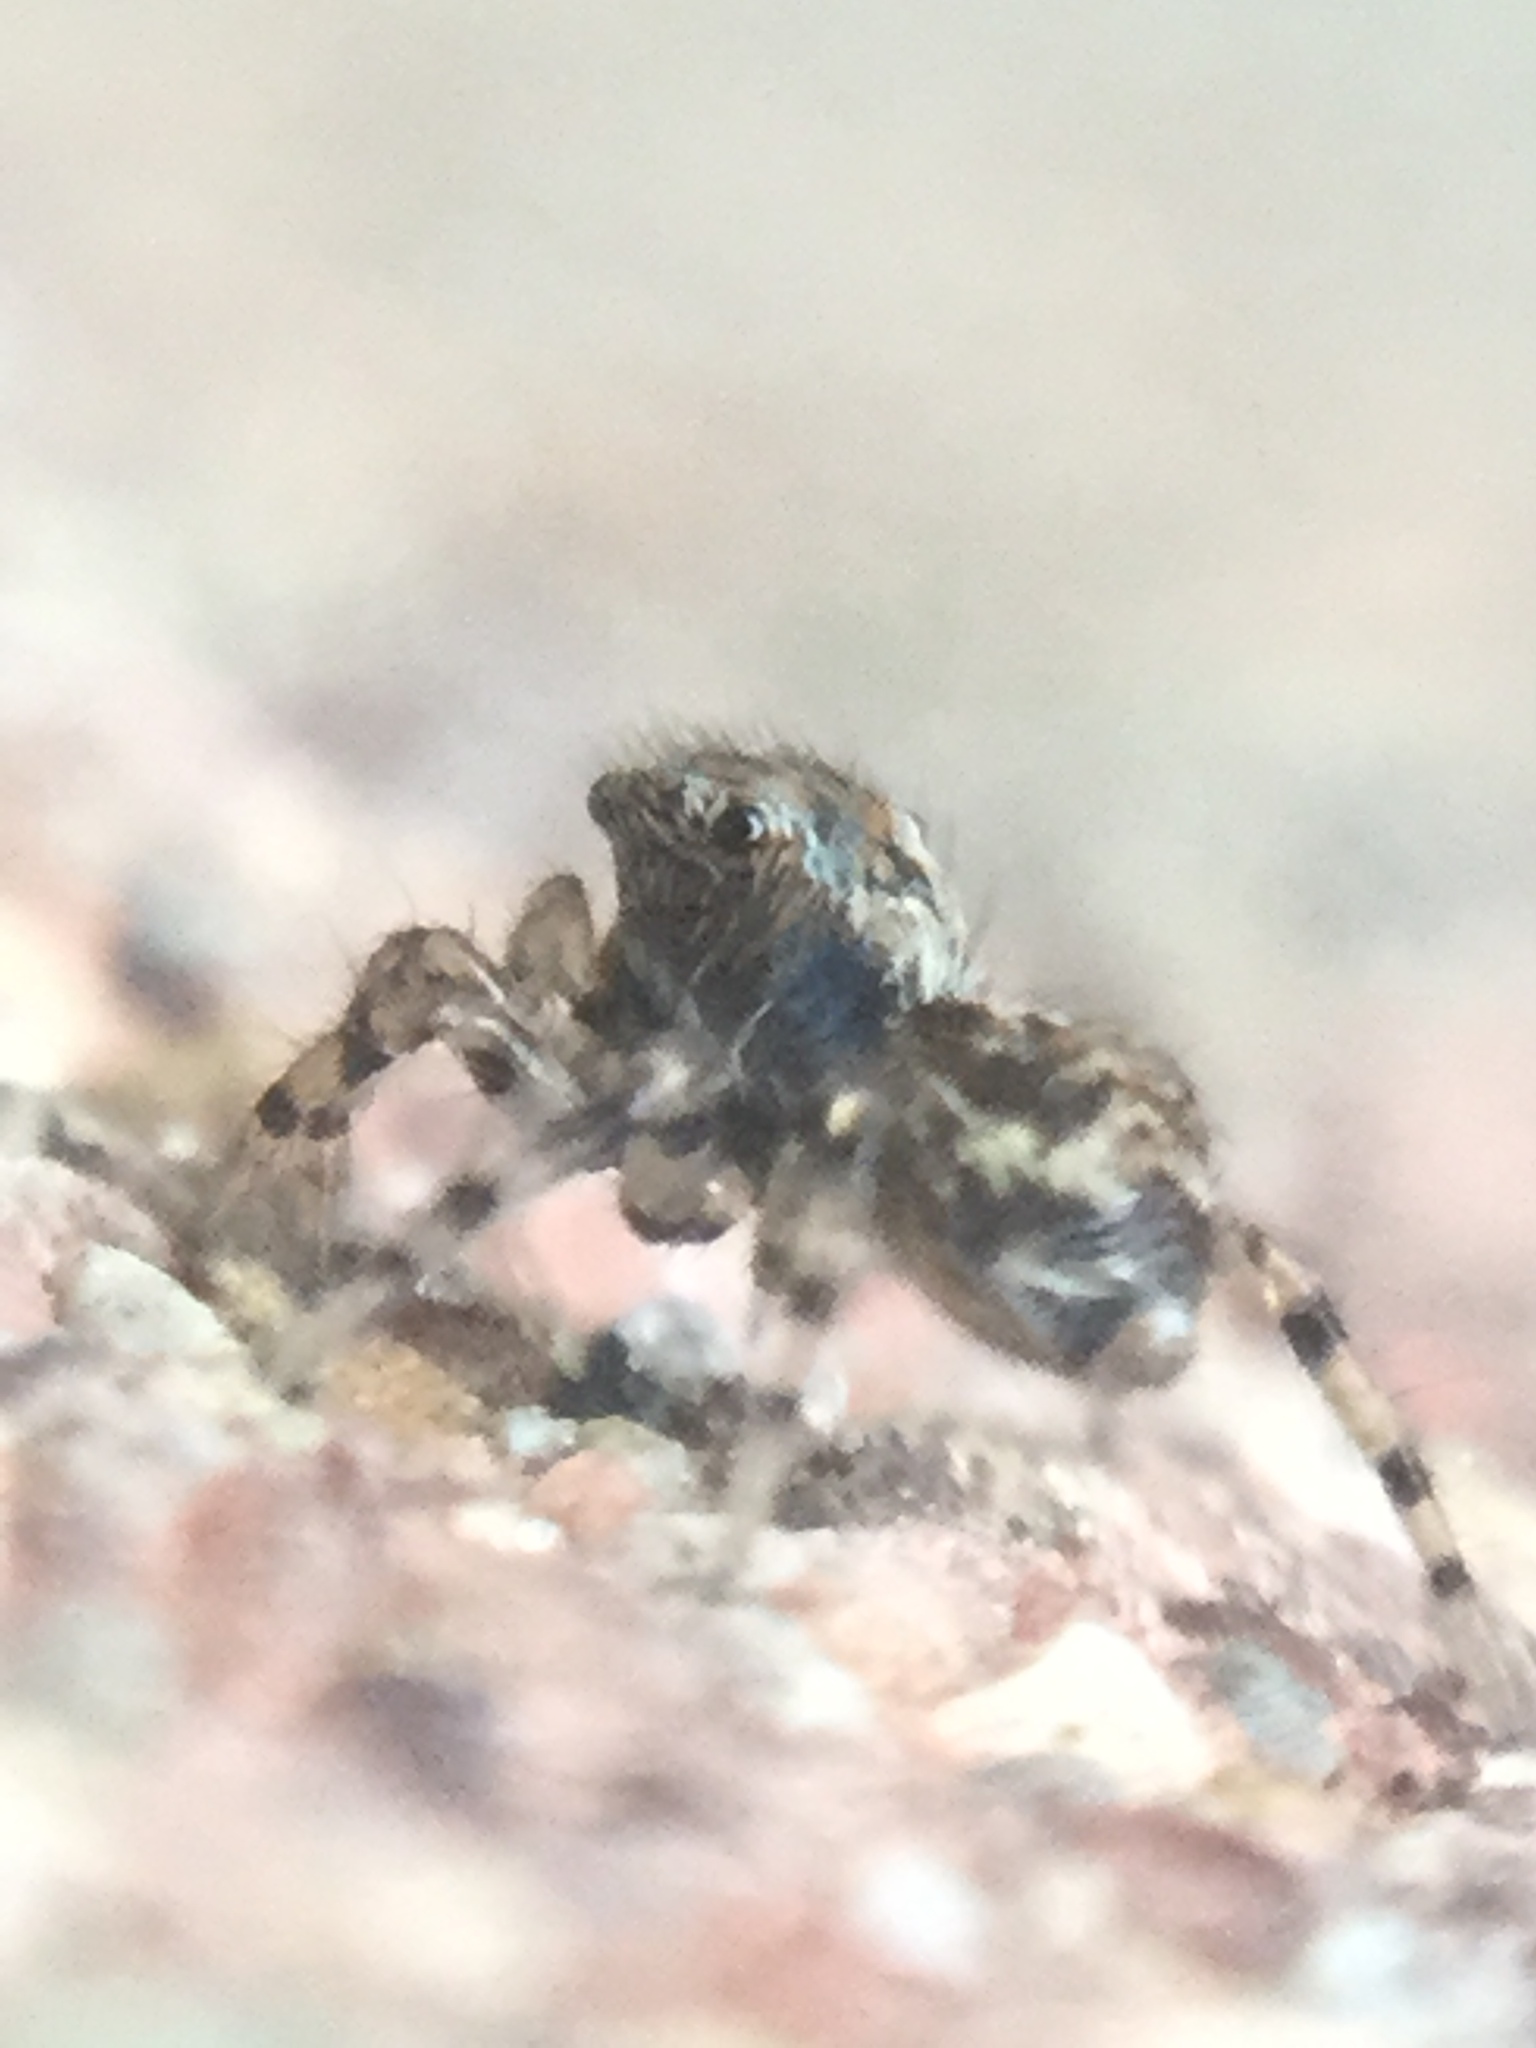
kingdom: Animalia
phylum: Arthropoda
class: Arachnida
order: Araneae
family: Salticidae
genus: Naphrys
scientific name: Naphrys pulex
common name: Flea jumping spider
